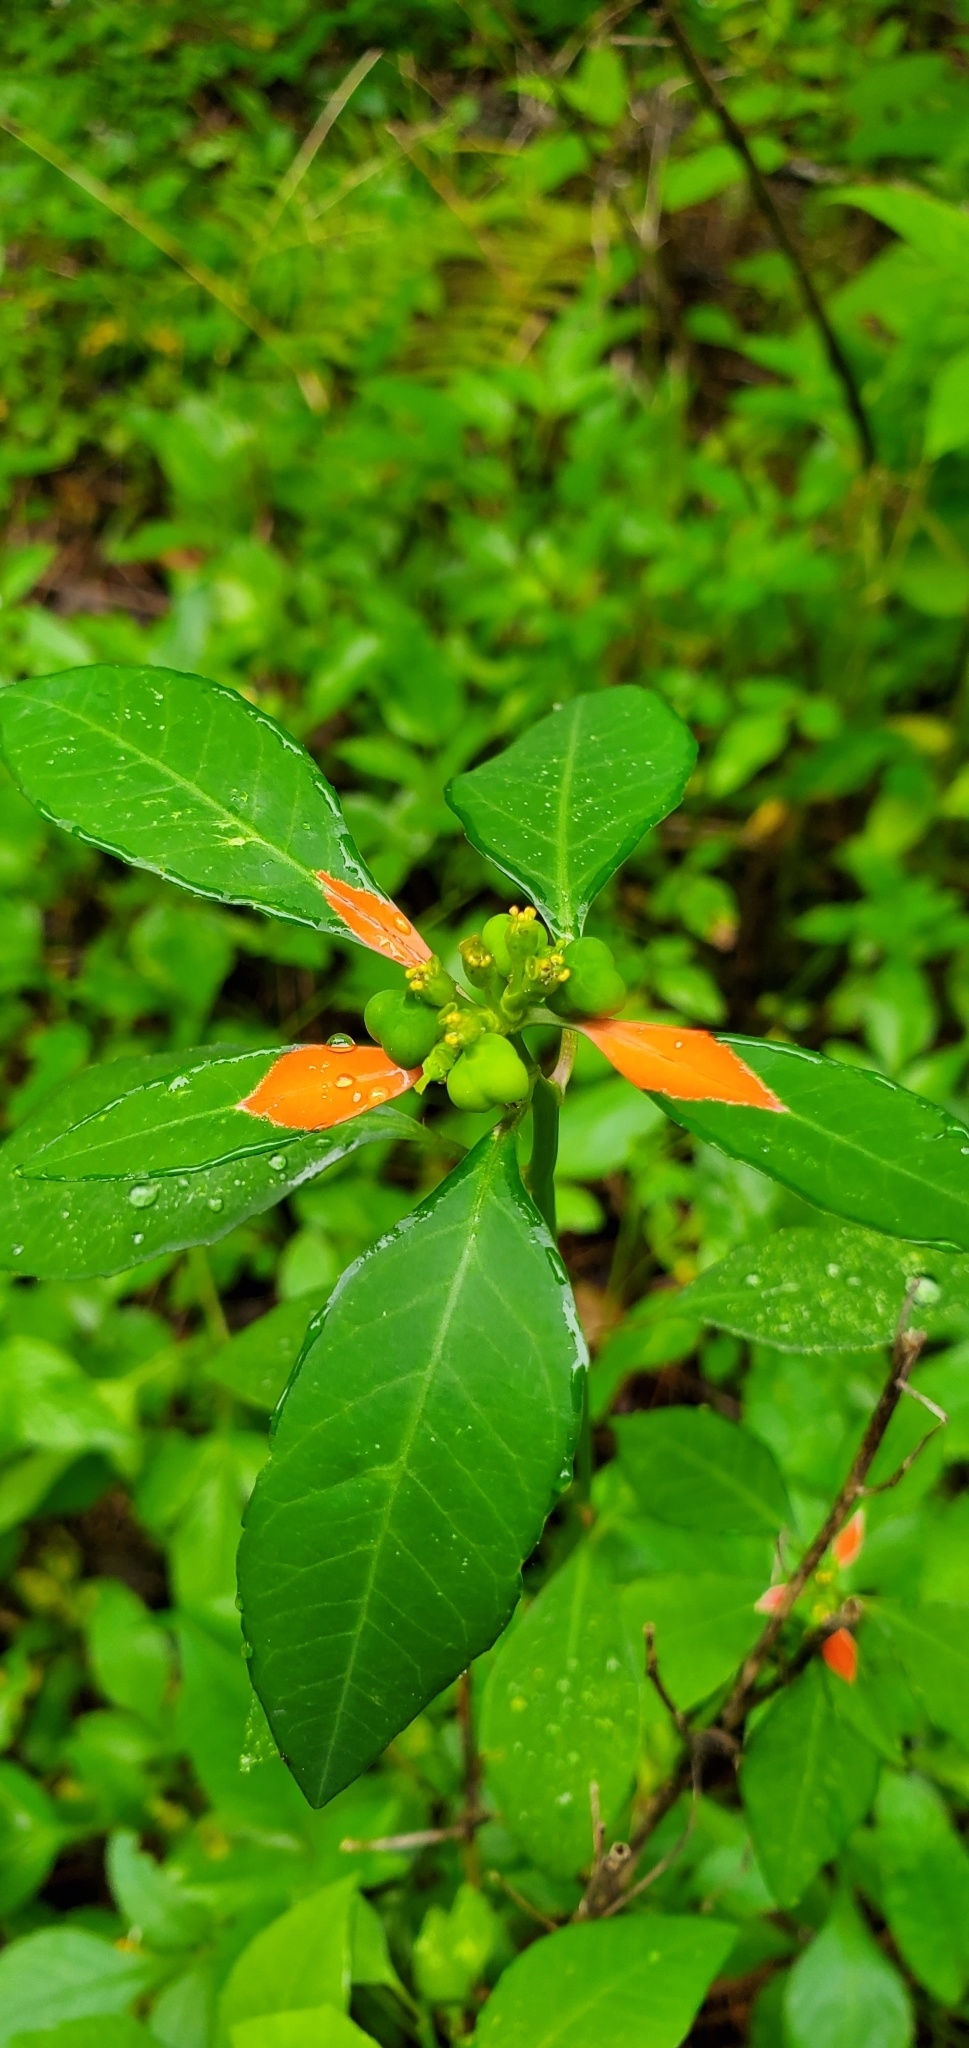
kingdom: Plantae
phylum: Tracheophyta
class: Magnoliopsida
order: Malpighiales
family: Euphorbiaceae
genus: Euphorbia
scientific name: Euphorbia heterophylla
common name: Mexican fireplant
